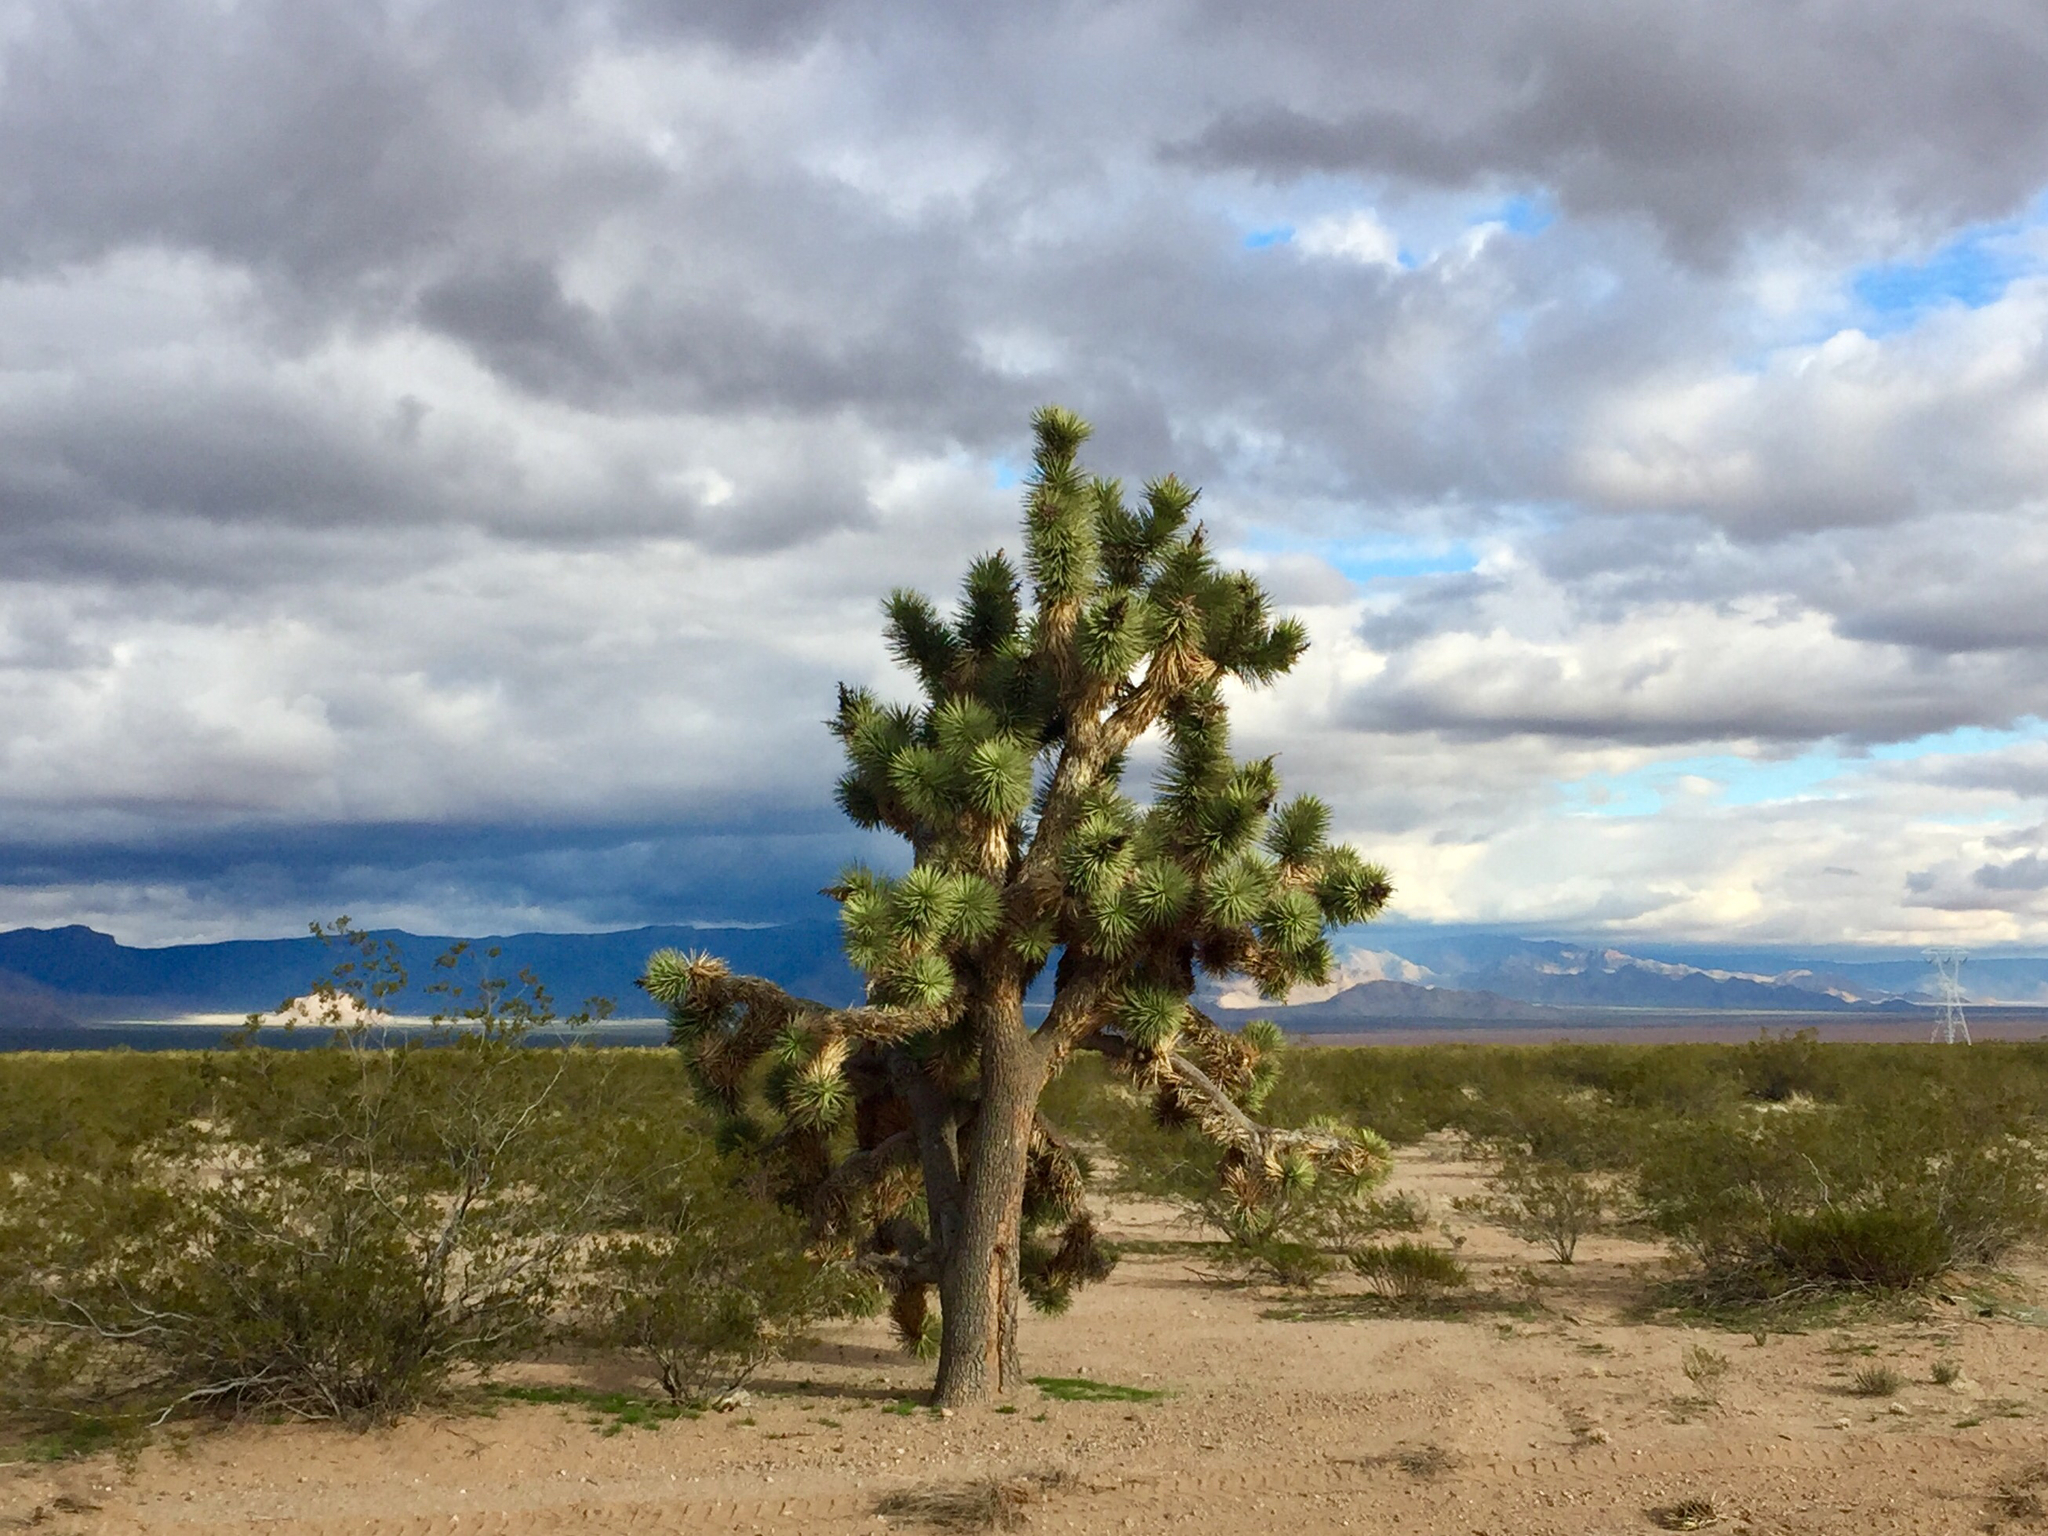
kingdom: Plantae
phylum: Tracheophyta
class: Liliopsida
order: Asparagales
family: Asparagaceae
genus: Yucca
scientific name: Yucca brevifolia
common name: Joshua tree
